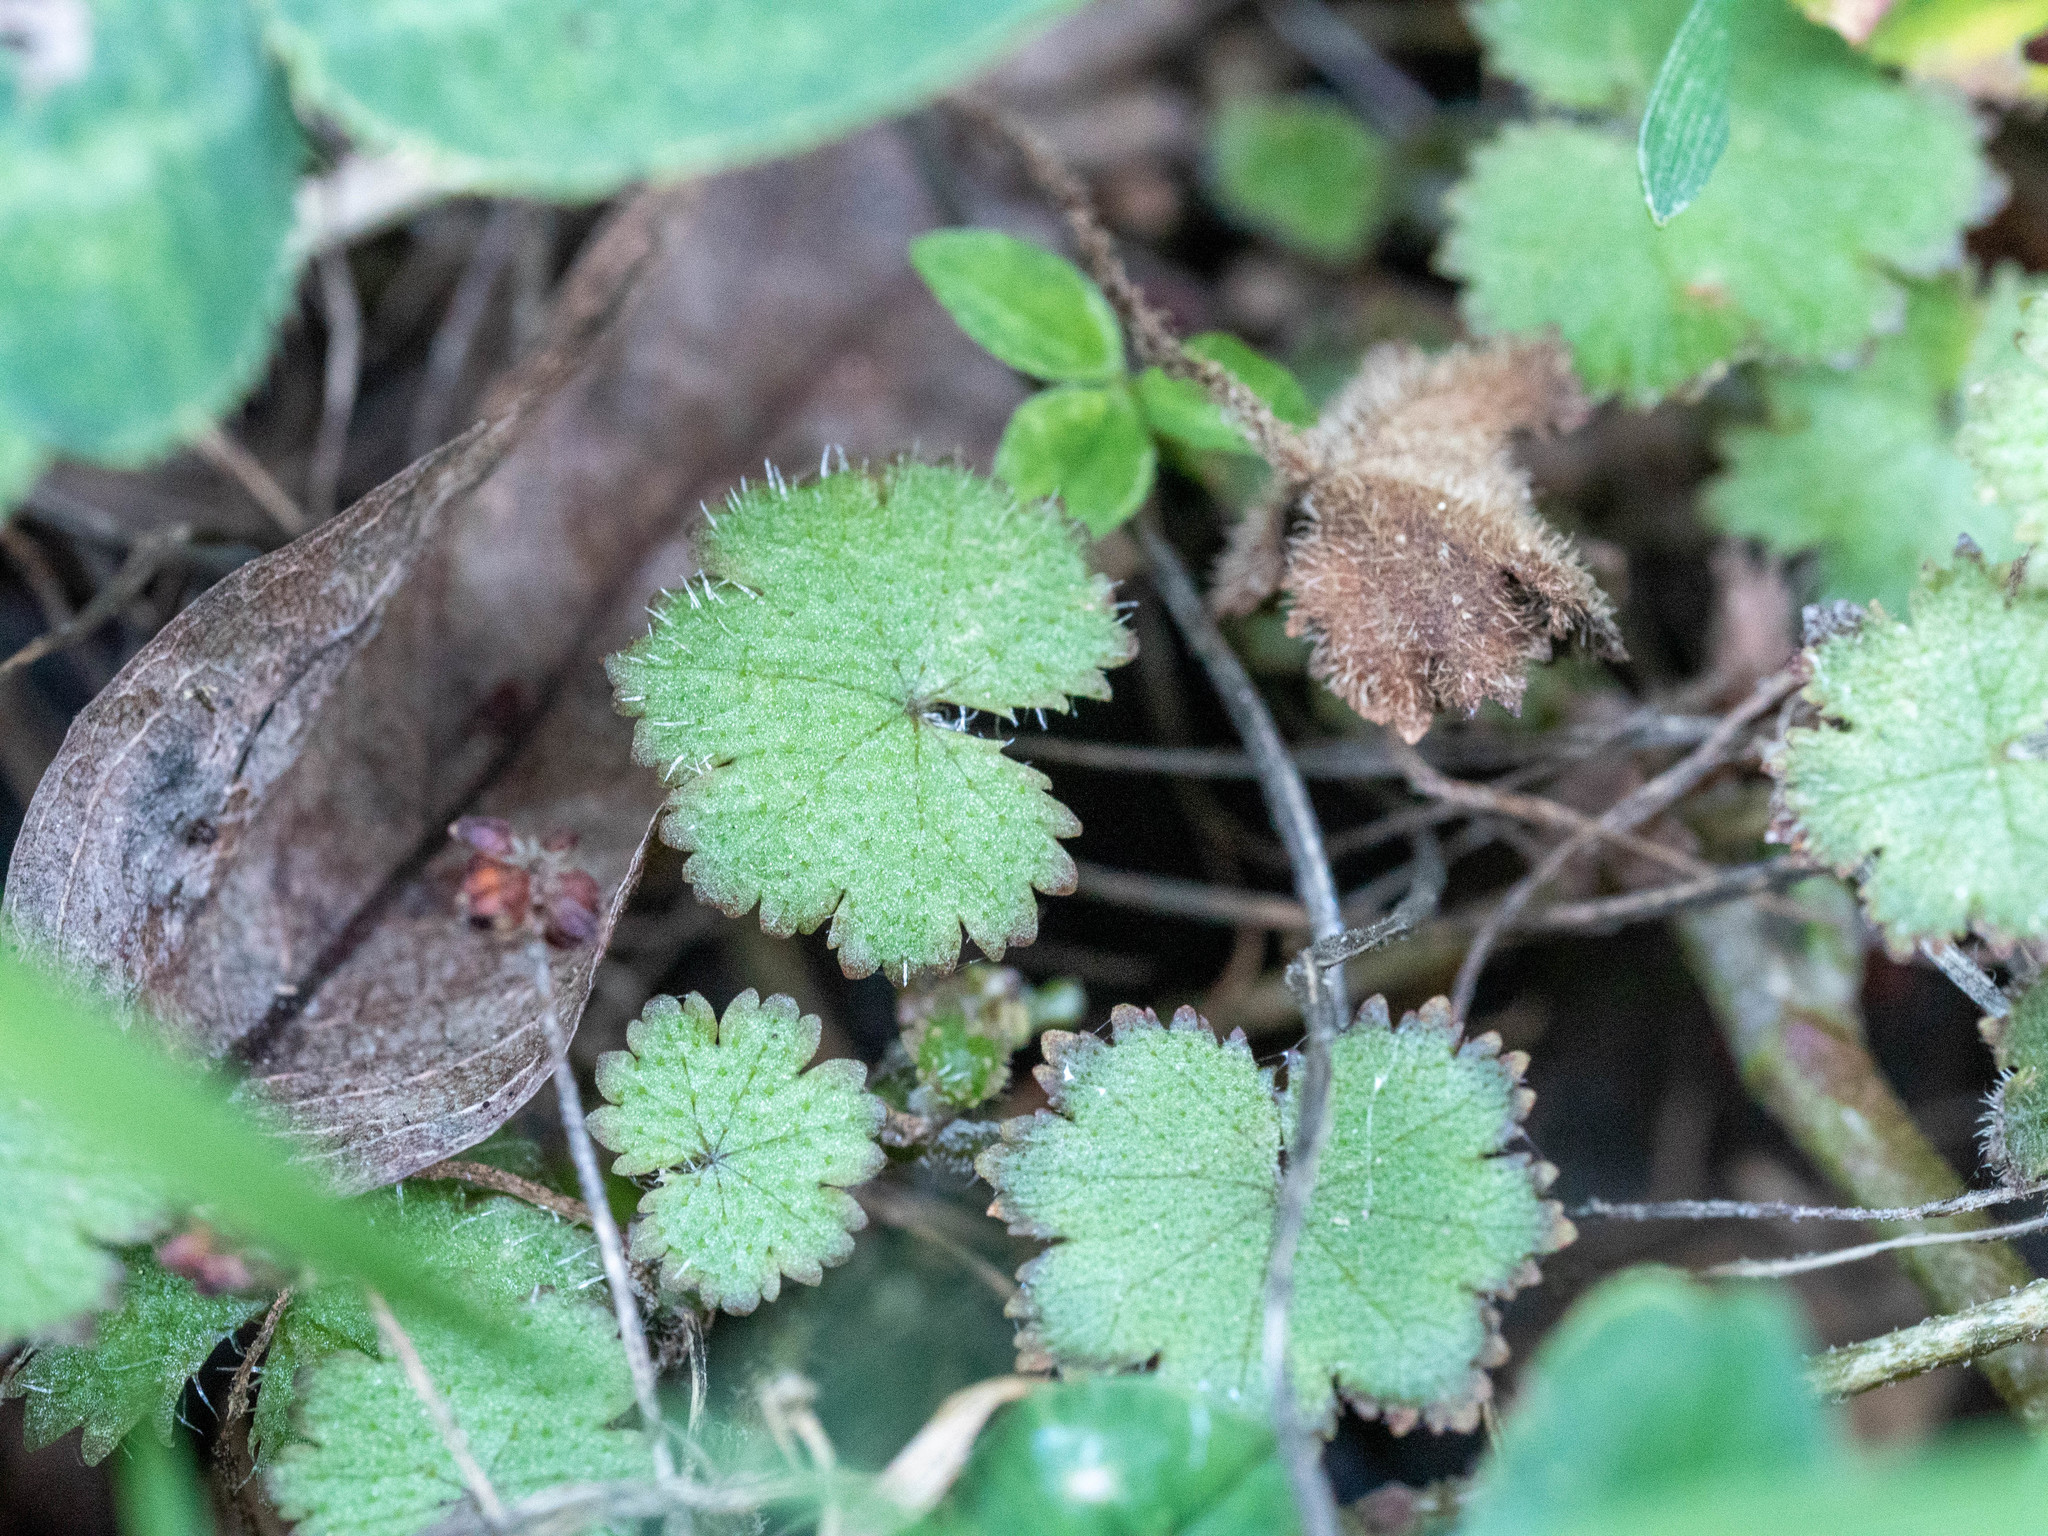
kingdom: Plantae
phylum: Tracheophyta
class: Magnoliopsida
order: Apiales
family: Araliaceae
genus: Hydrocotyle
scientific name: Hydrocotyle moschata
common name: Hairy pennywort
